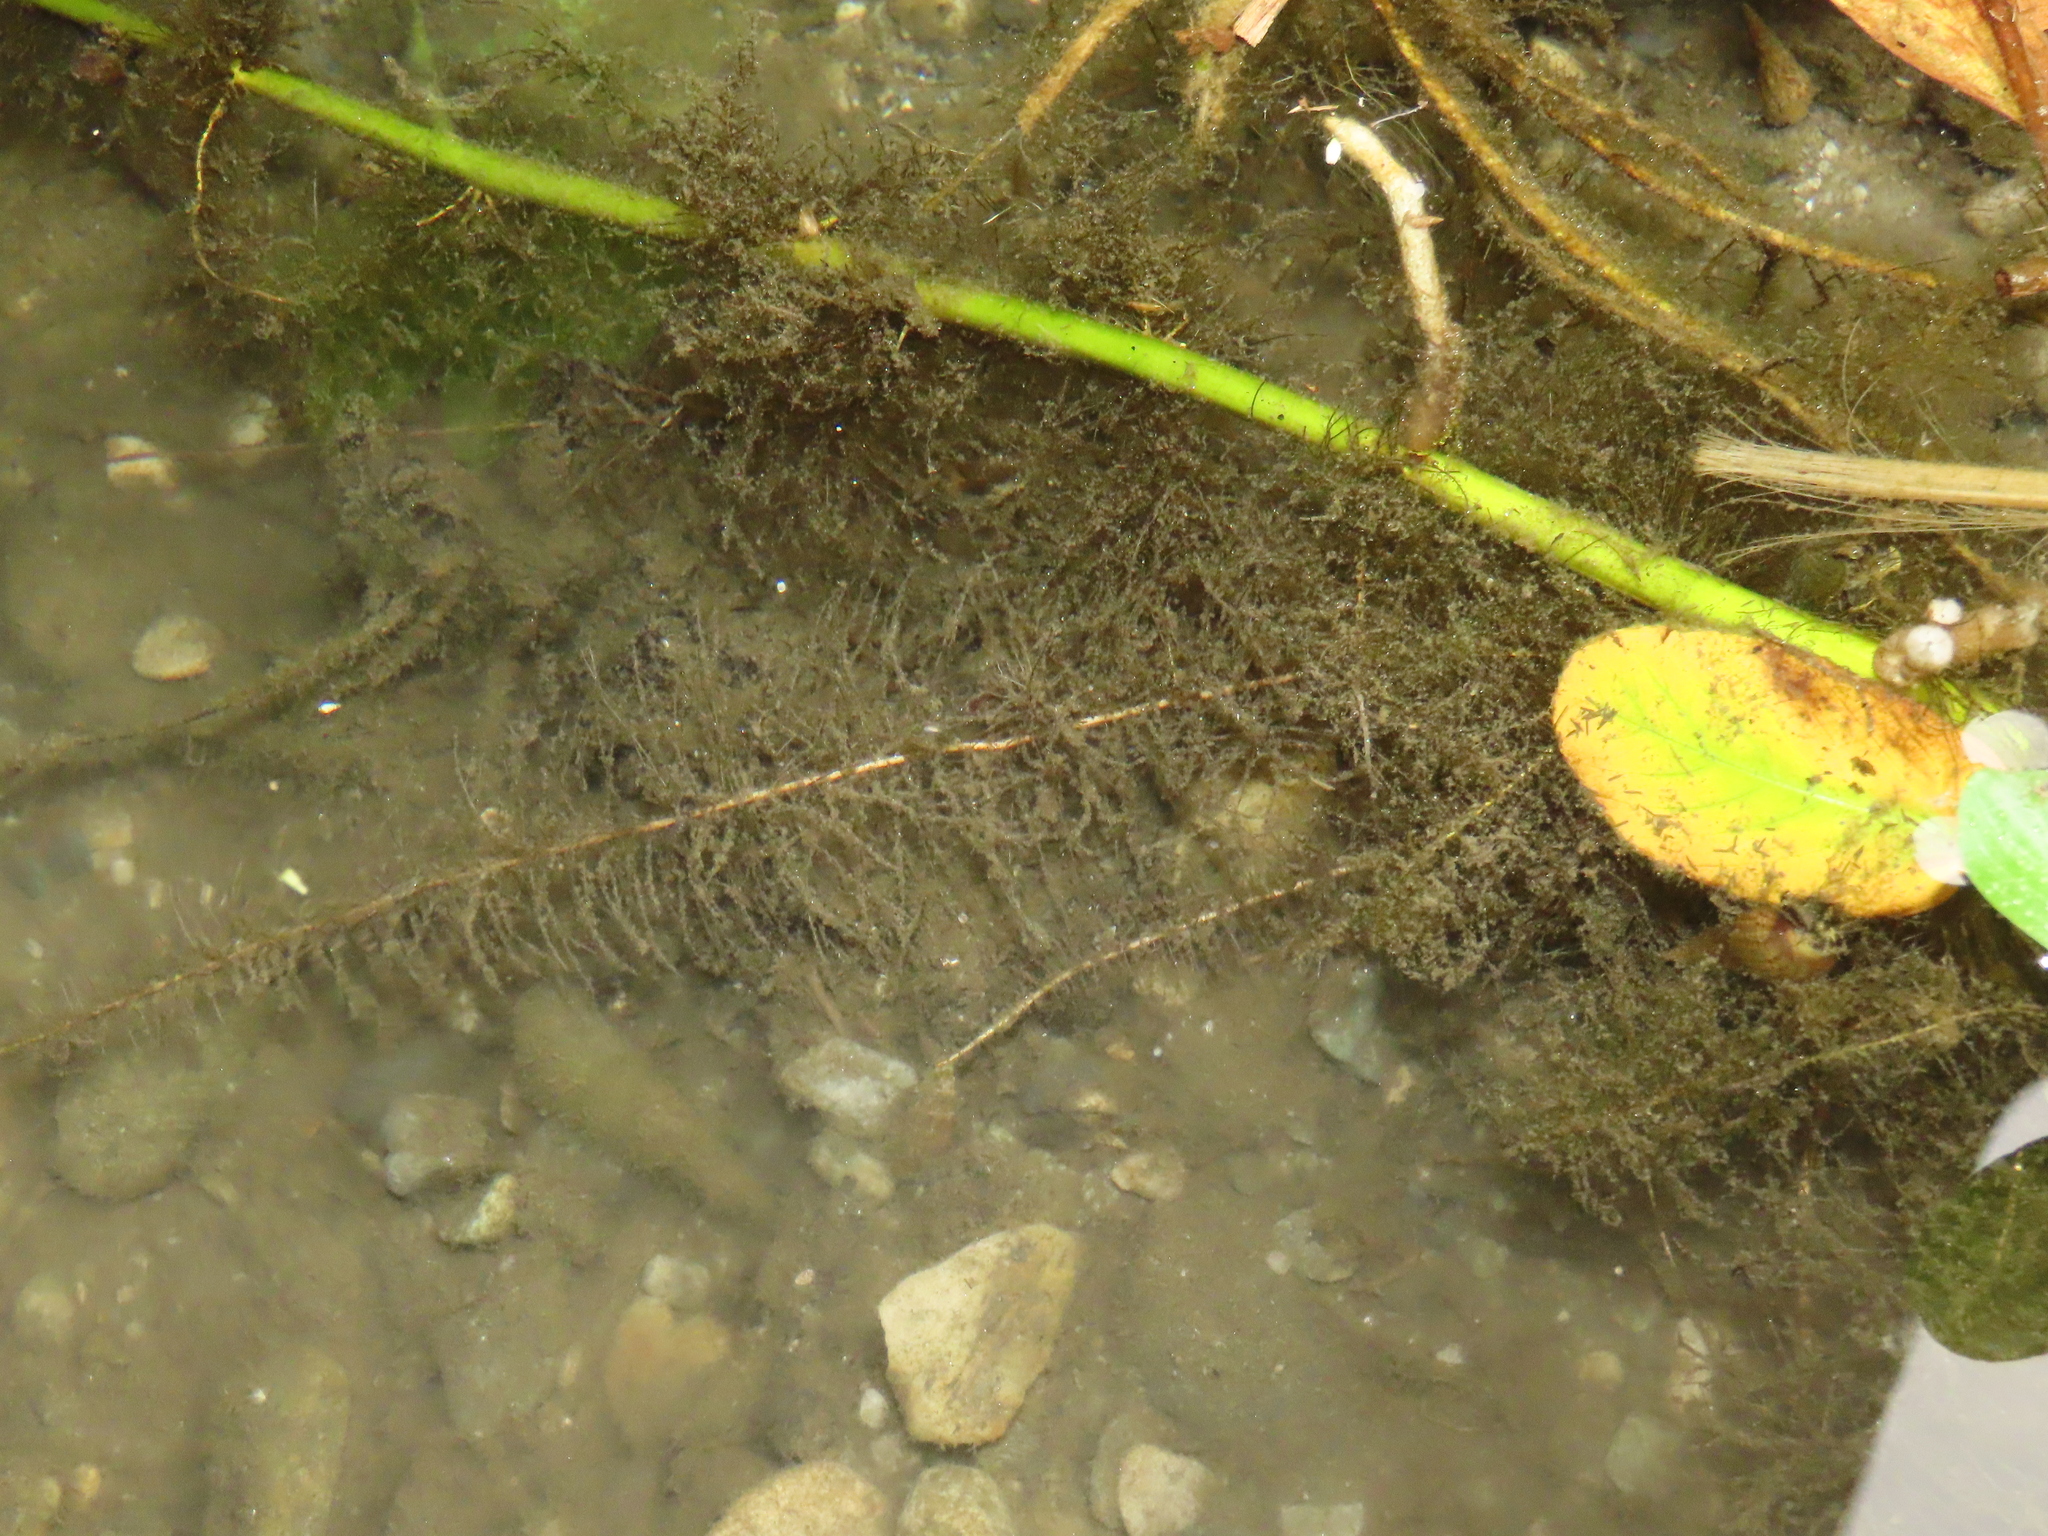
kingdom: Plantae
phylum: Tracheophyta
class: Magnoliopsida
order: Myrtales
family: Onagraceae
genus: Ludwigia
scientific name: Ludwigia taiwanensis
